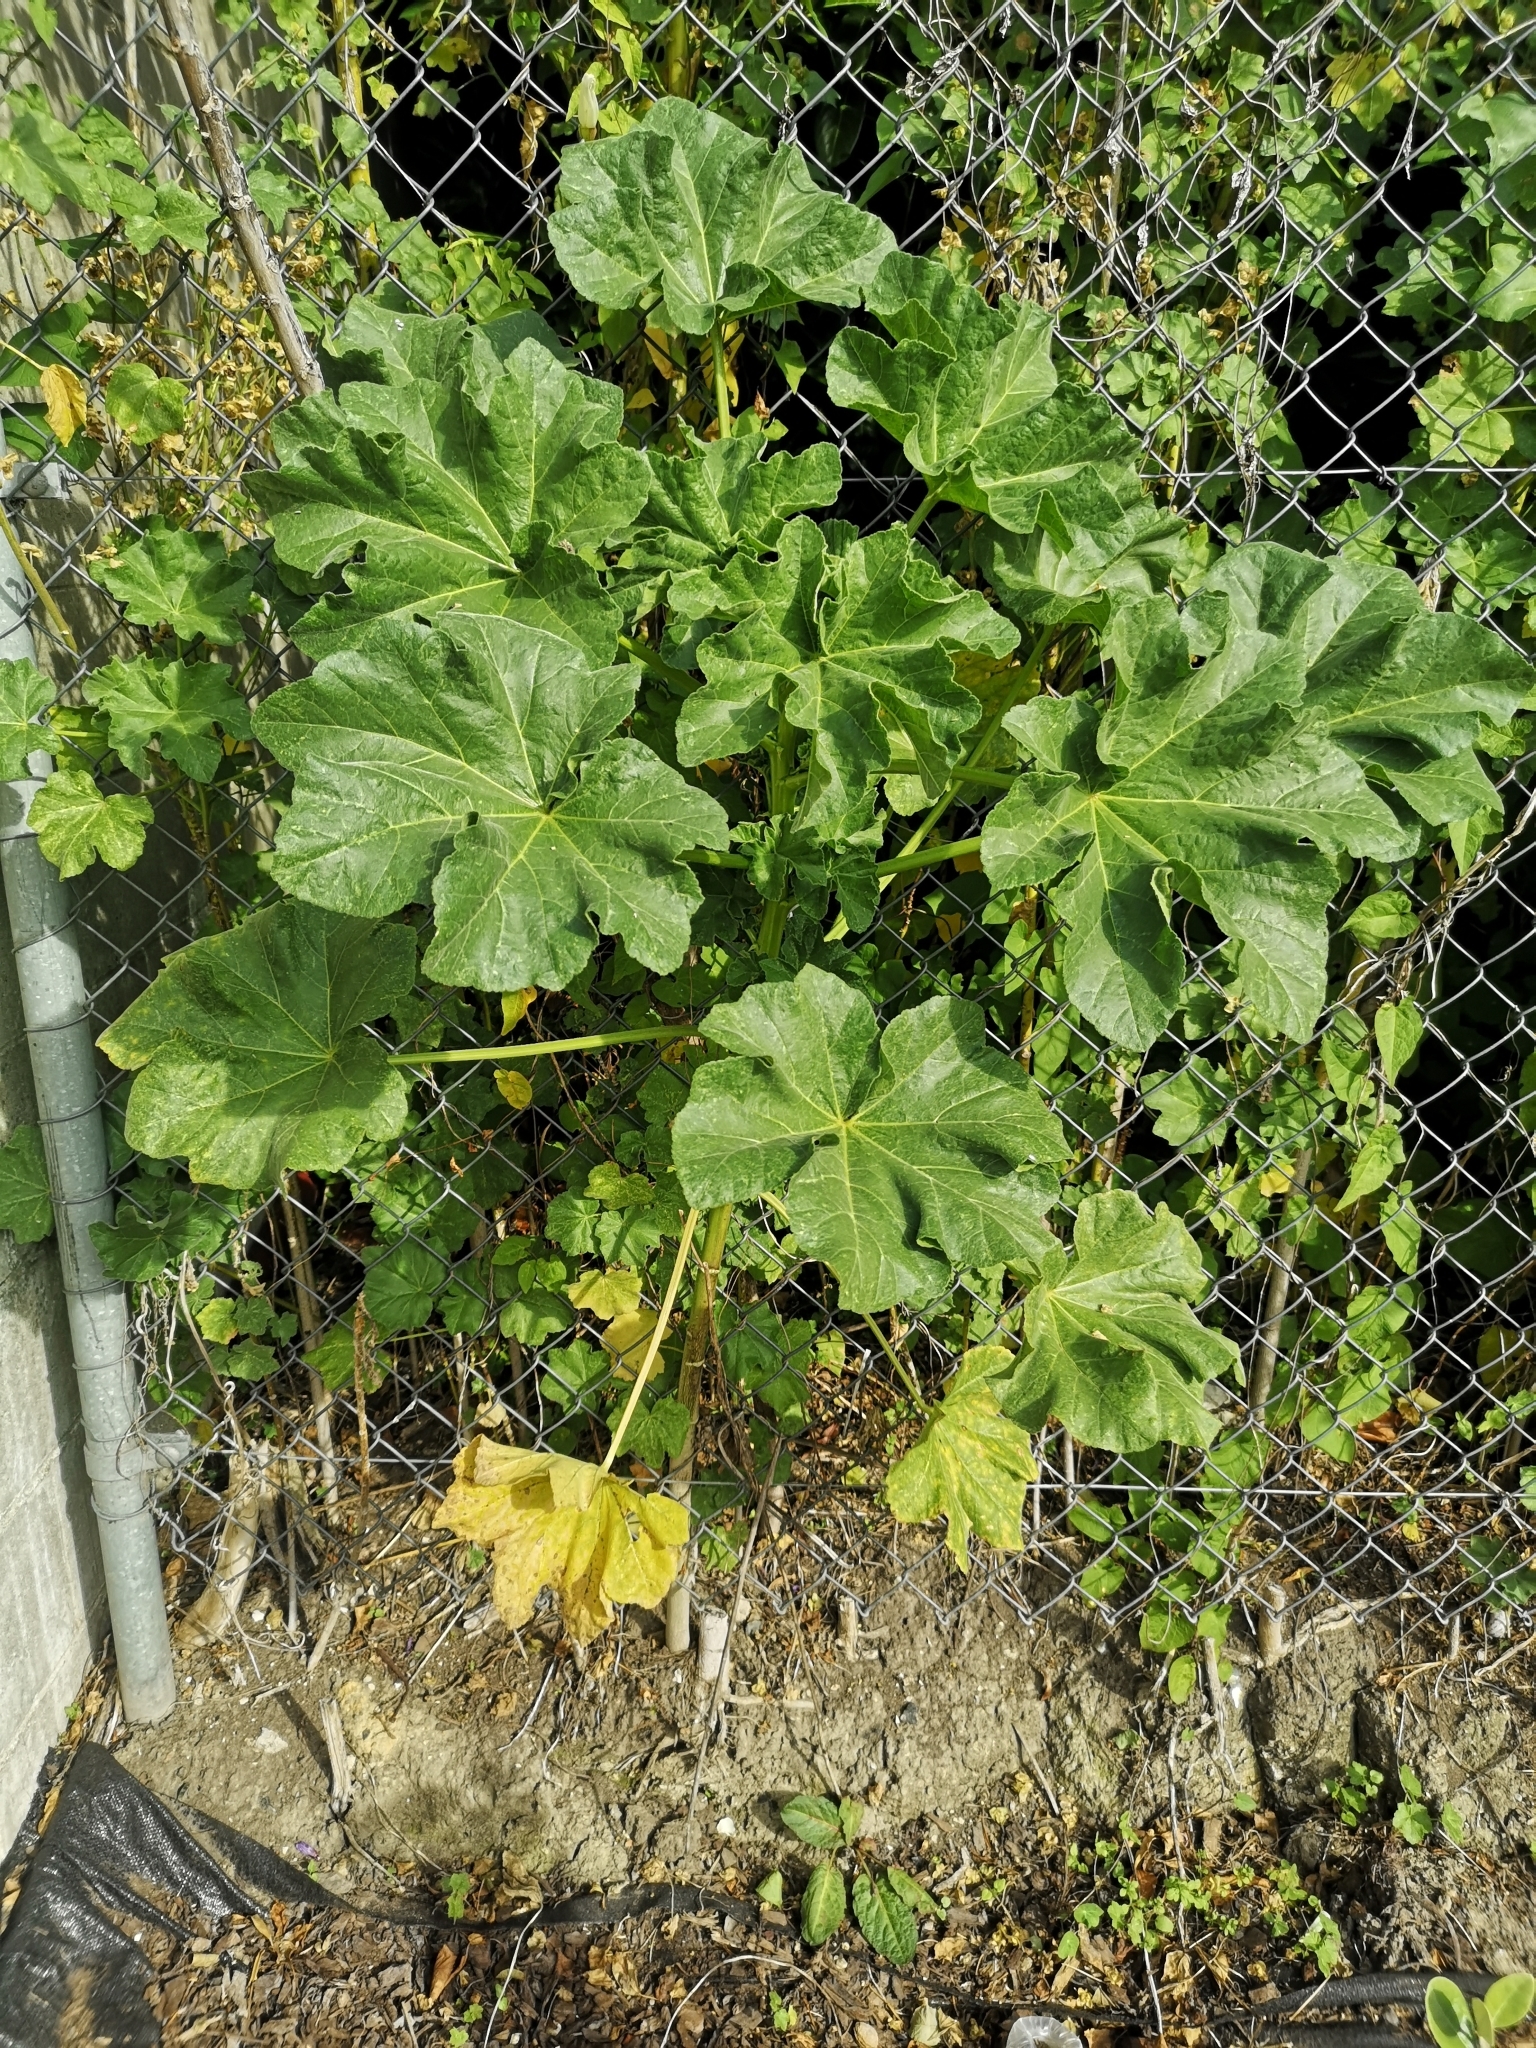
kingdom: Plantae
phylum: Tracheophyta
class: Magnoliopsida
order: Malvales
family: Malvaceae
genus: Malva
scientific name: Malva arborea
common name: Tree mallow
